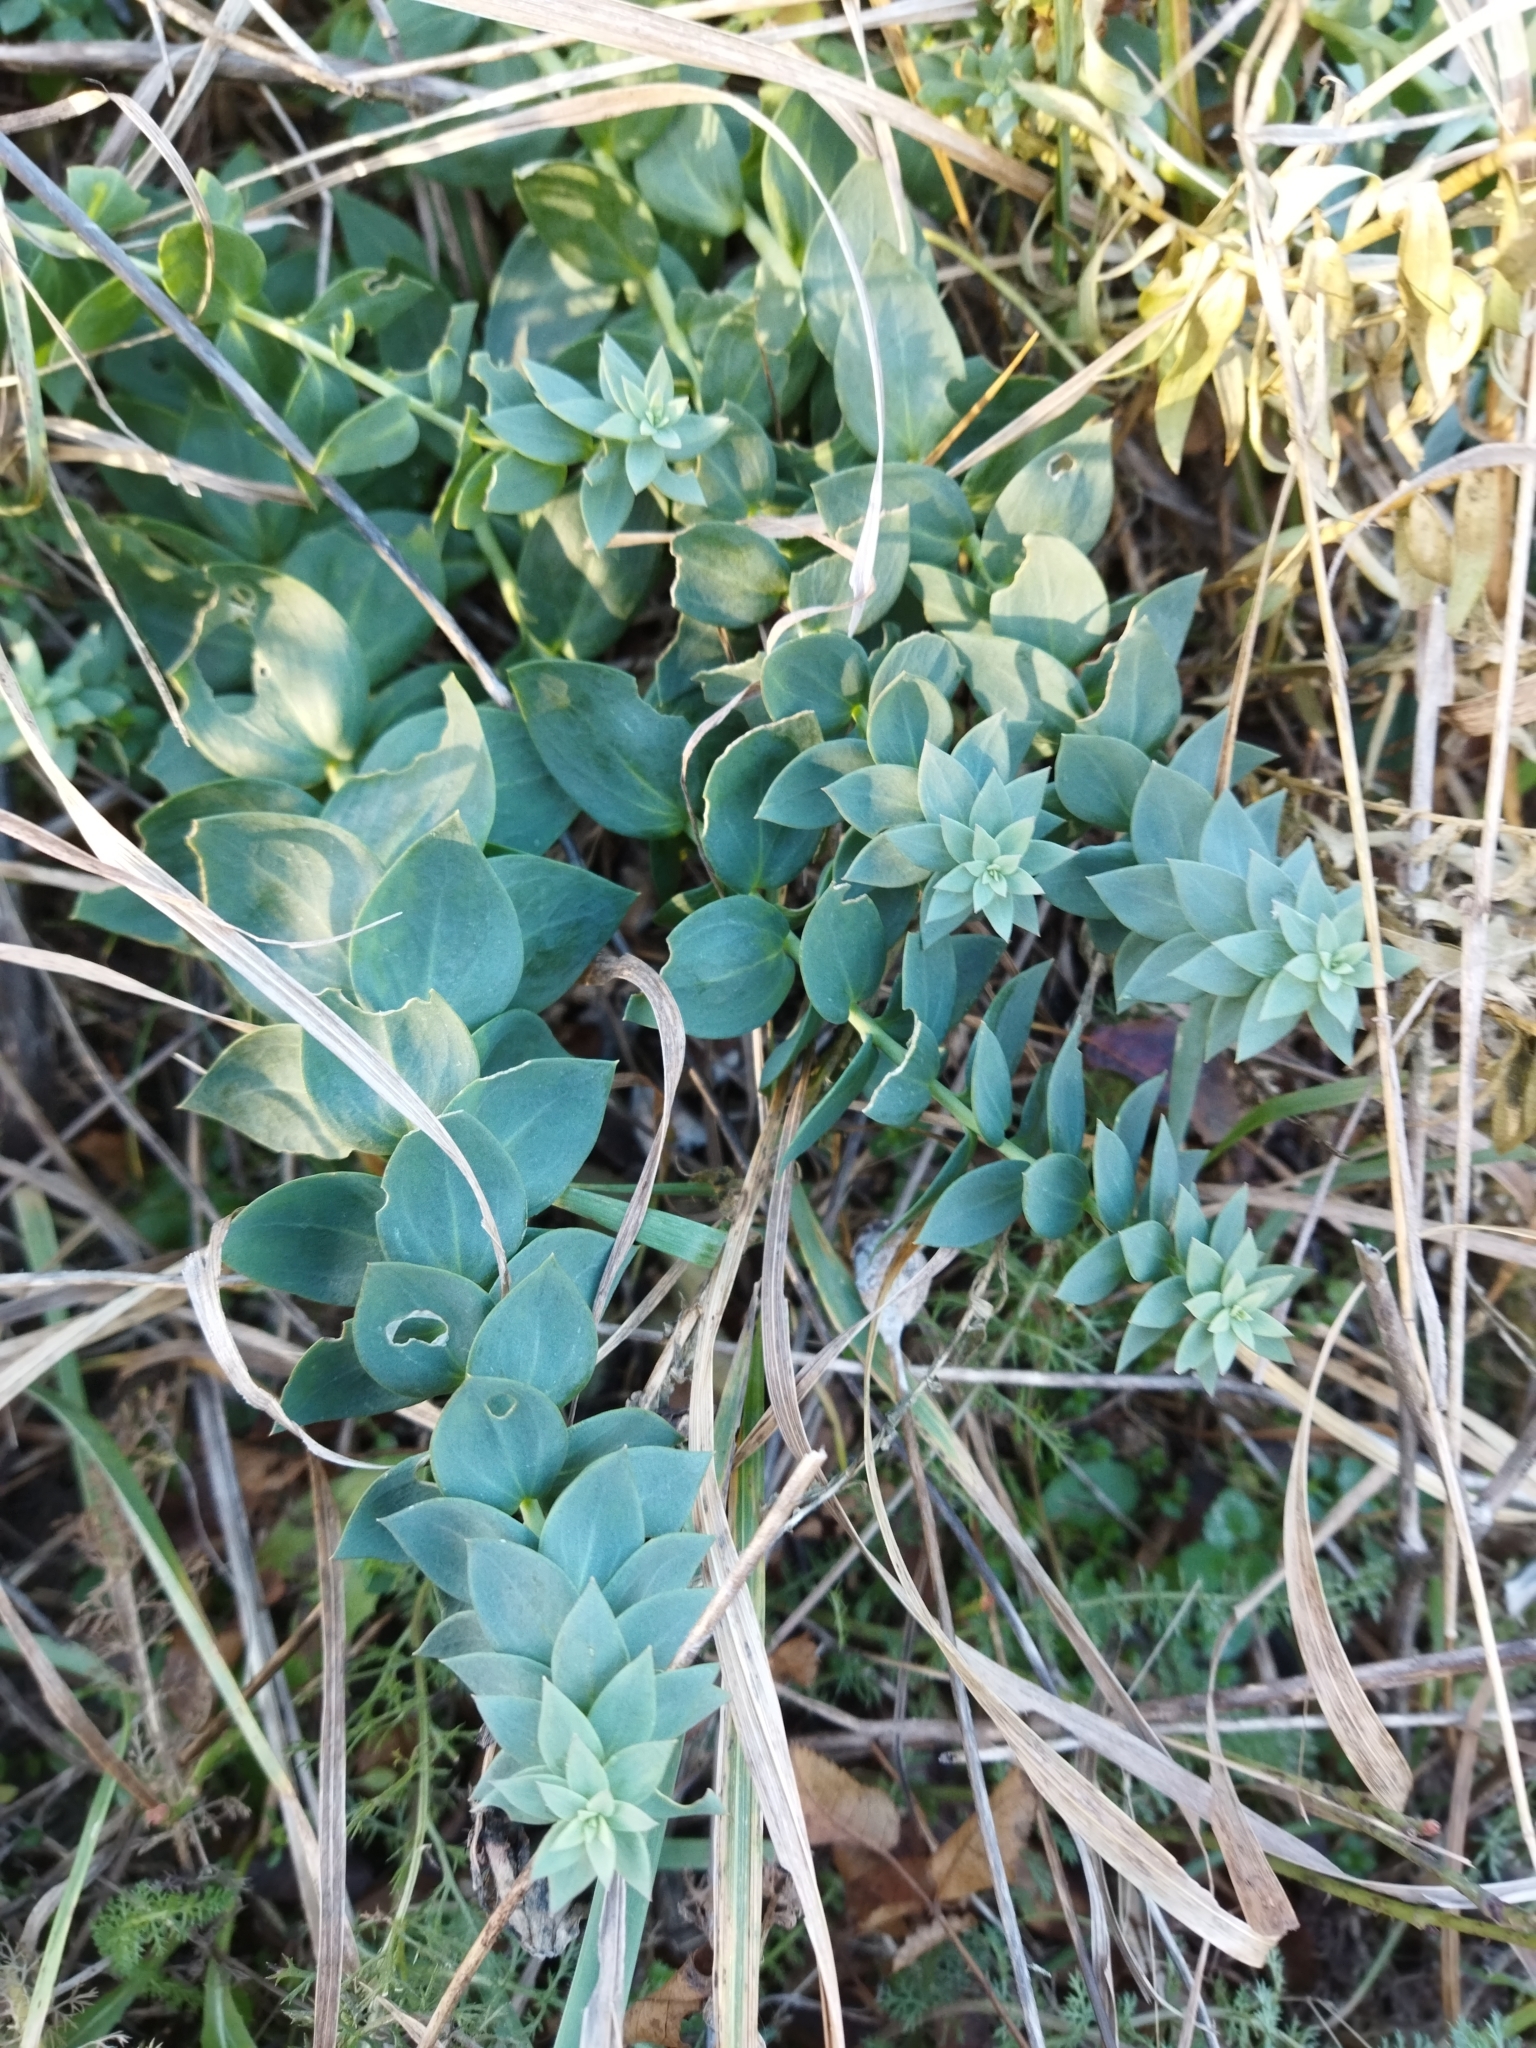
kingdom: Plantae
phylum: Tracheophyta
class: Magnoliopsida
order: Lamiales
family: Plantaginaceae
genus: Linaria
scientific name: Linaria genistifolia
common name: Broomleaf toadflax
